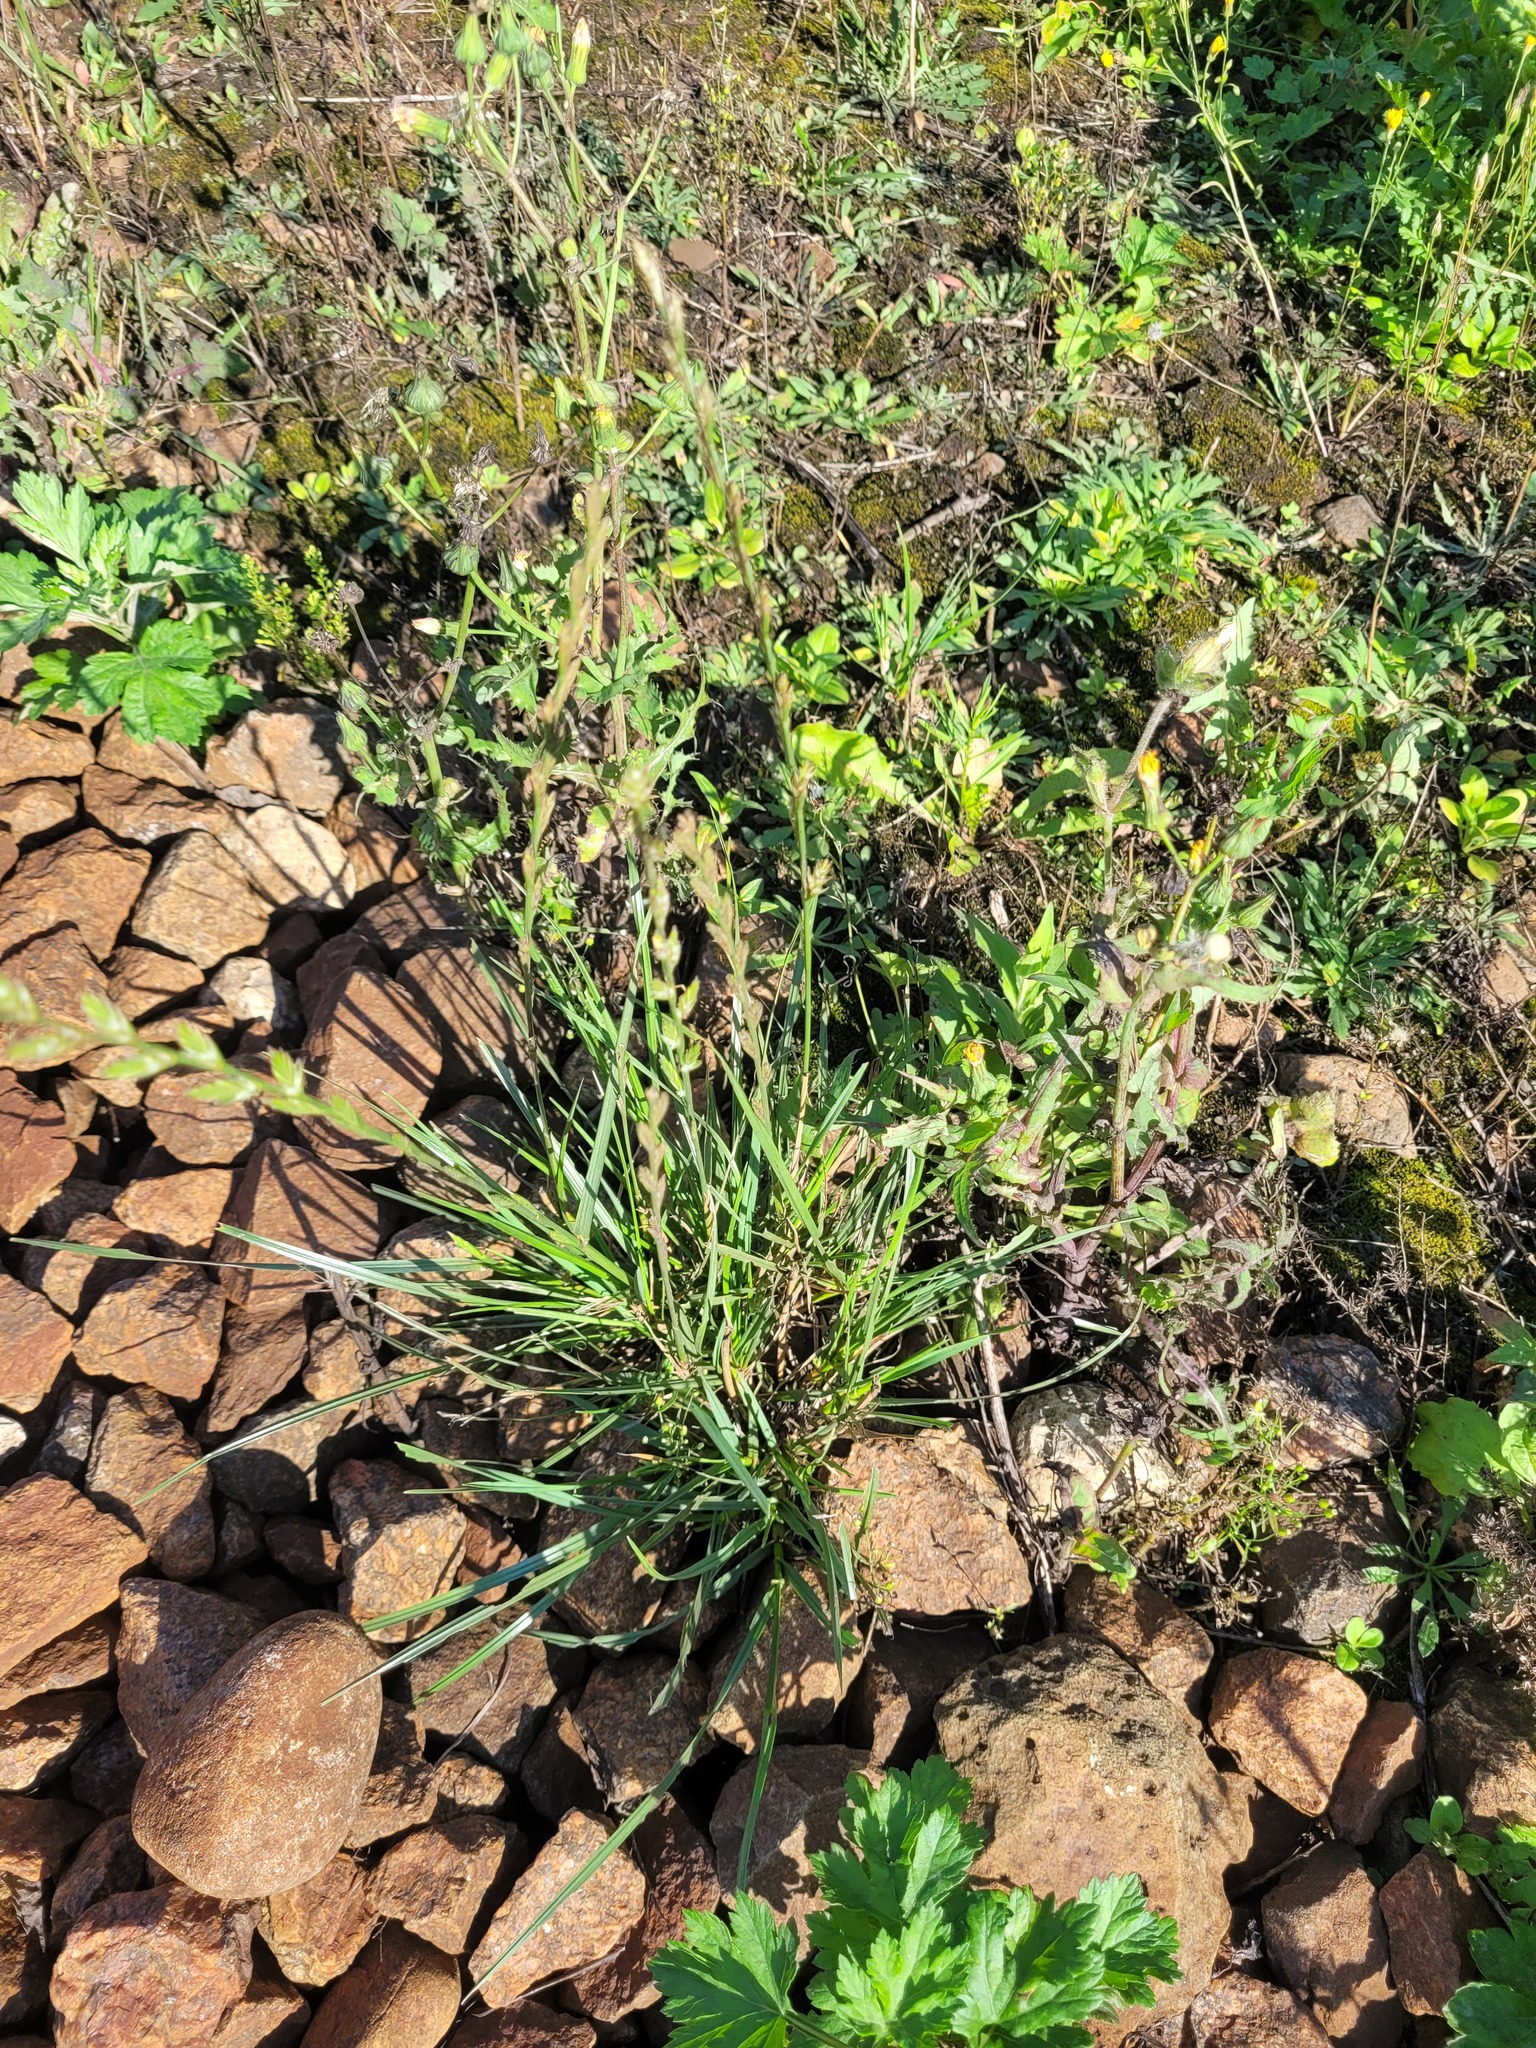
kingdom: Plantae
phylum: Tracheophyta
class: Liliopsida
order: Poales
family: Poaceae
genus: Lolium
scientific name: Lolium perenne
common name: Perennial ryegrass
